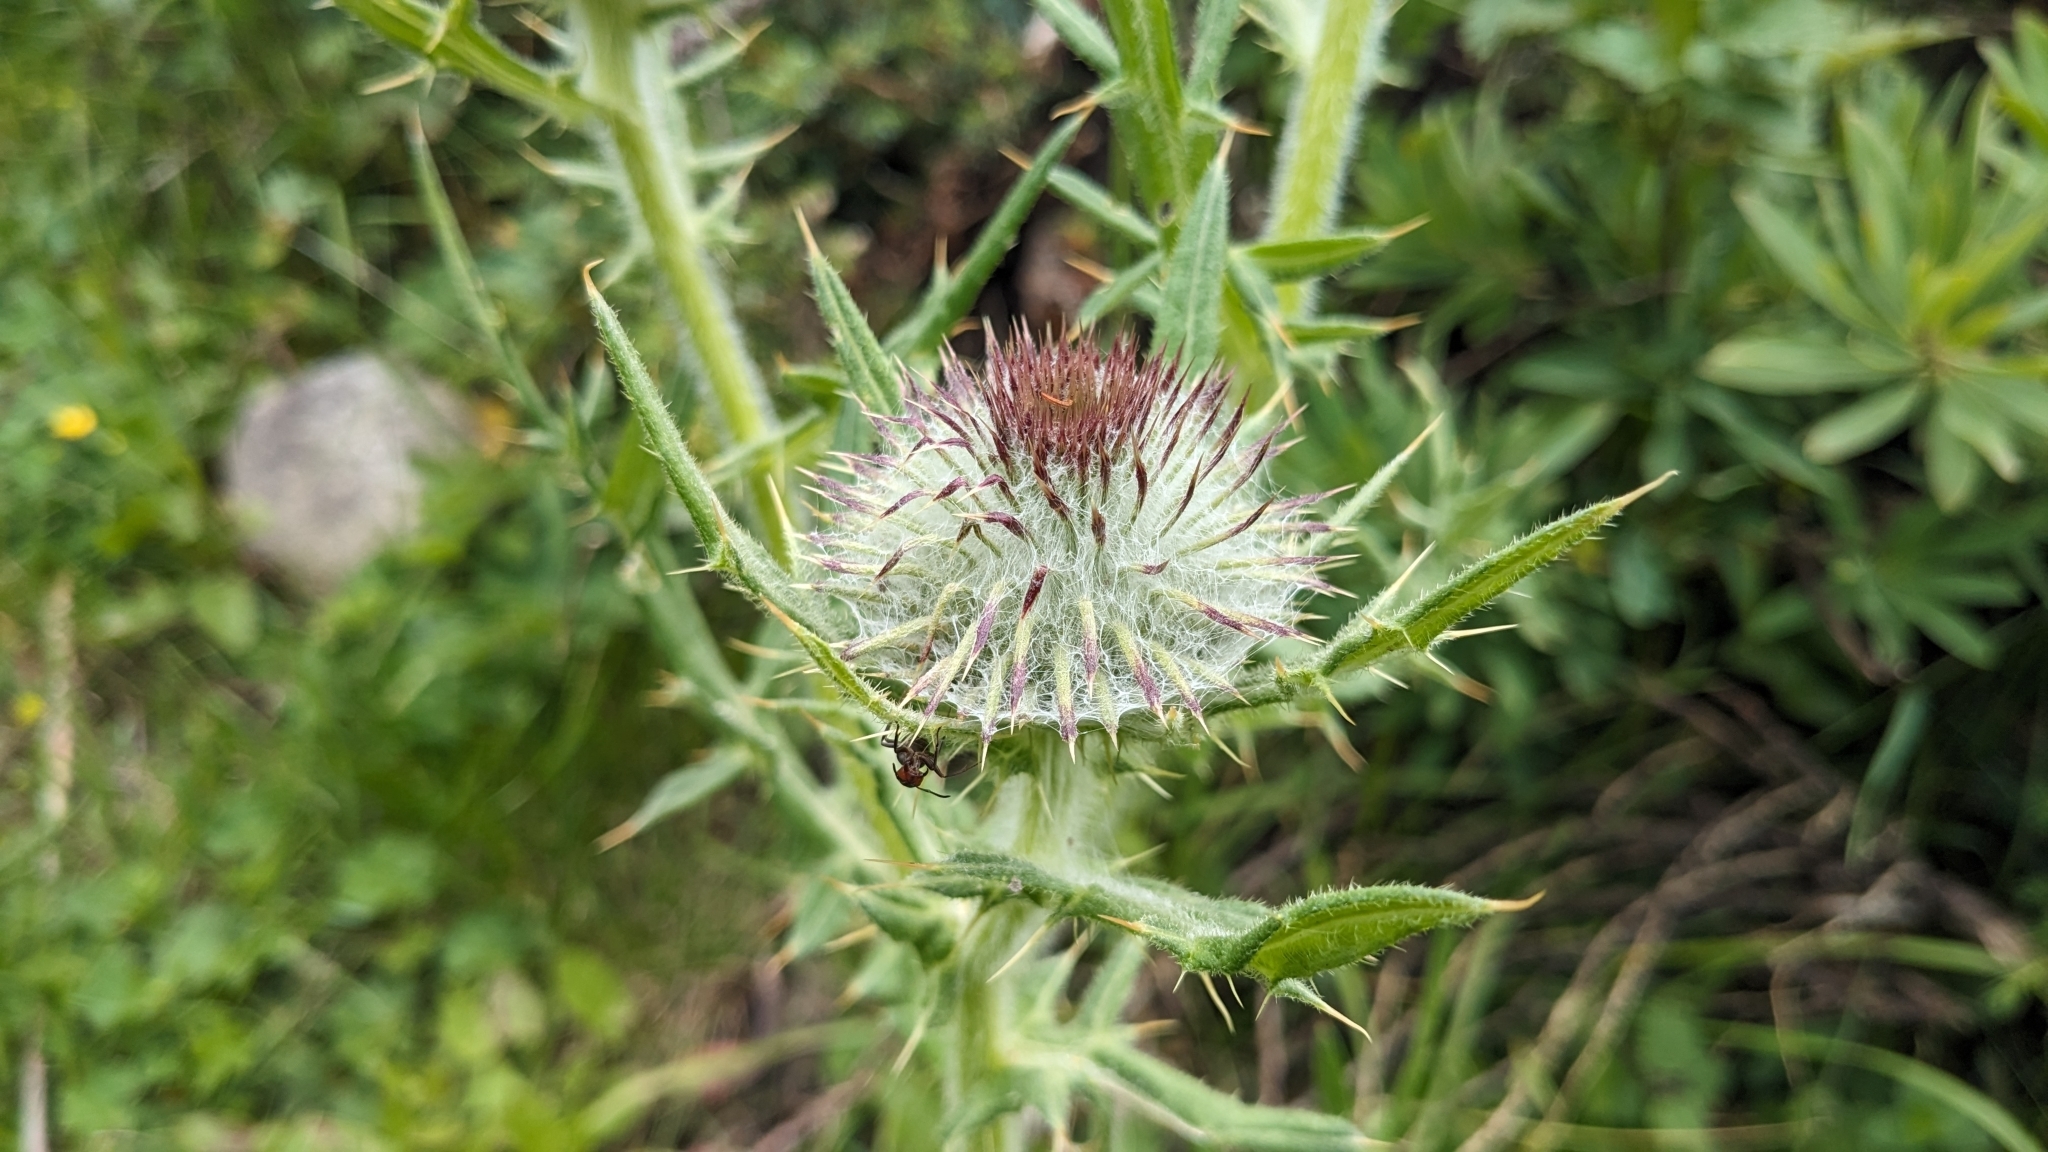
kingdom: Plantae
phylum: Tracheophyta
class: Magnoliopsida
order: Asterales
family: Asteraceae
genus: Lophiolepis
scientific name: Lophiolepis eriophora
